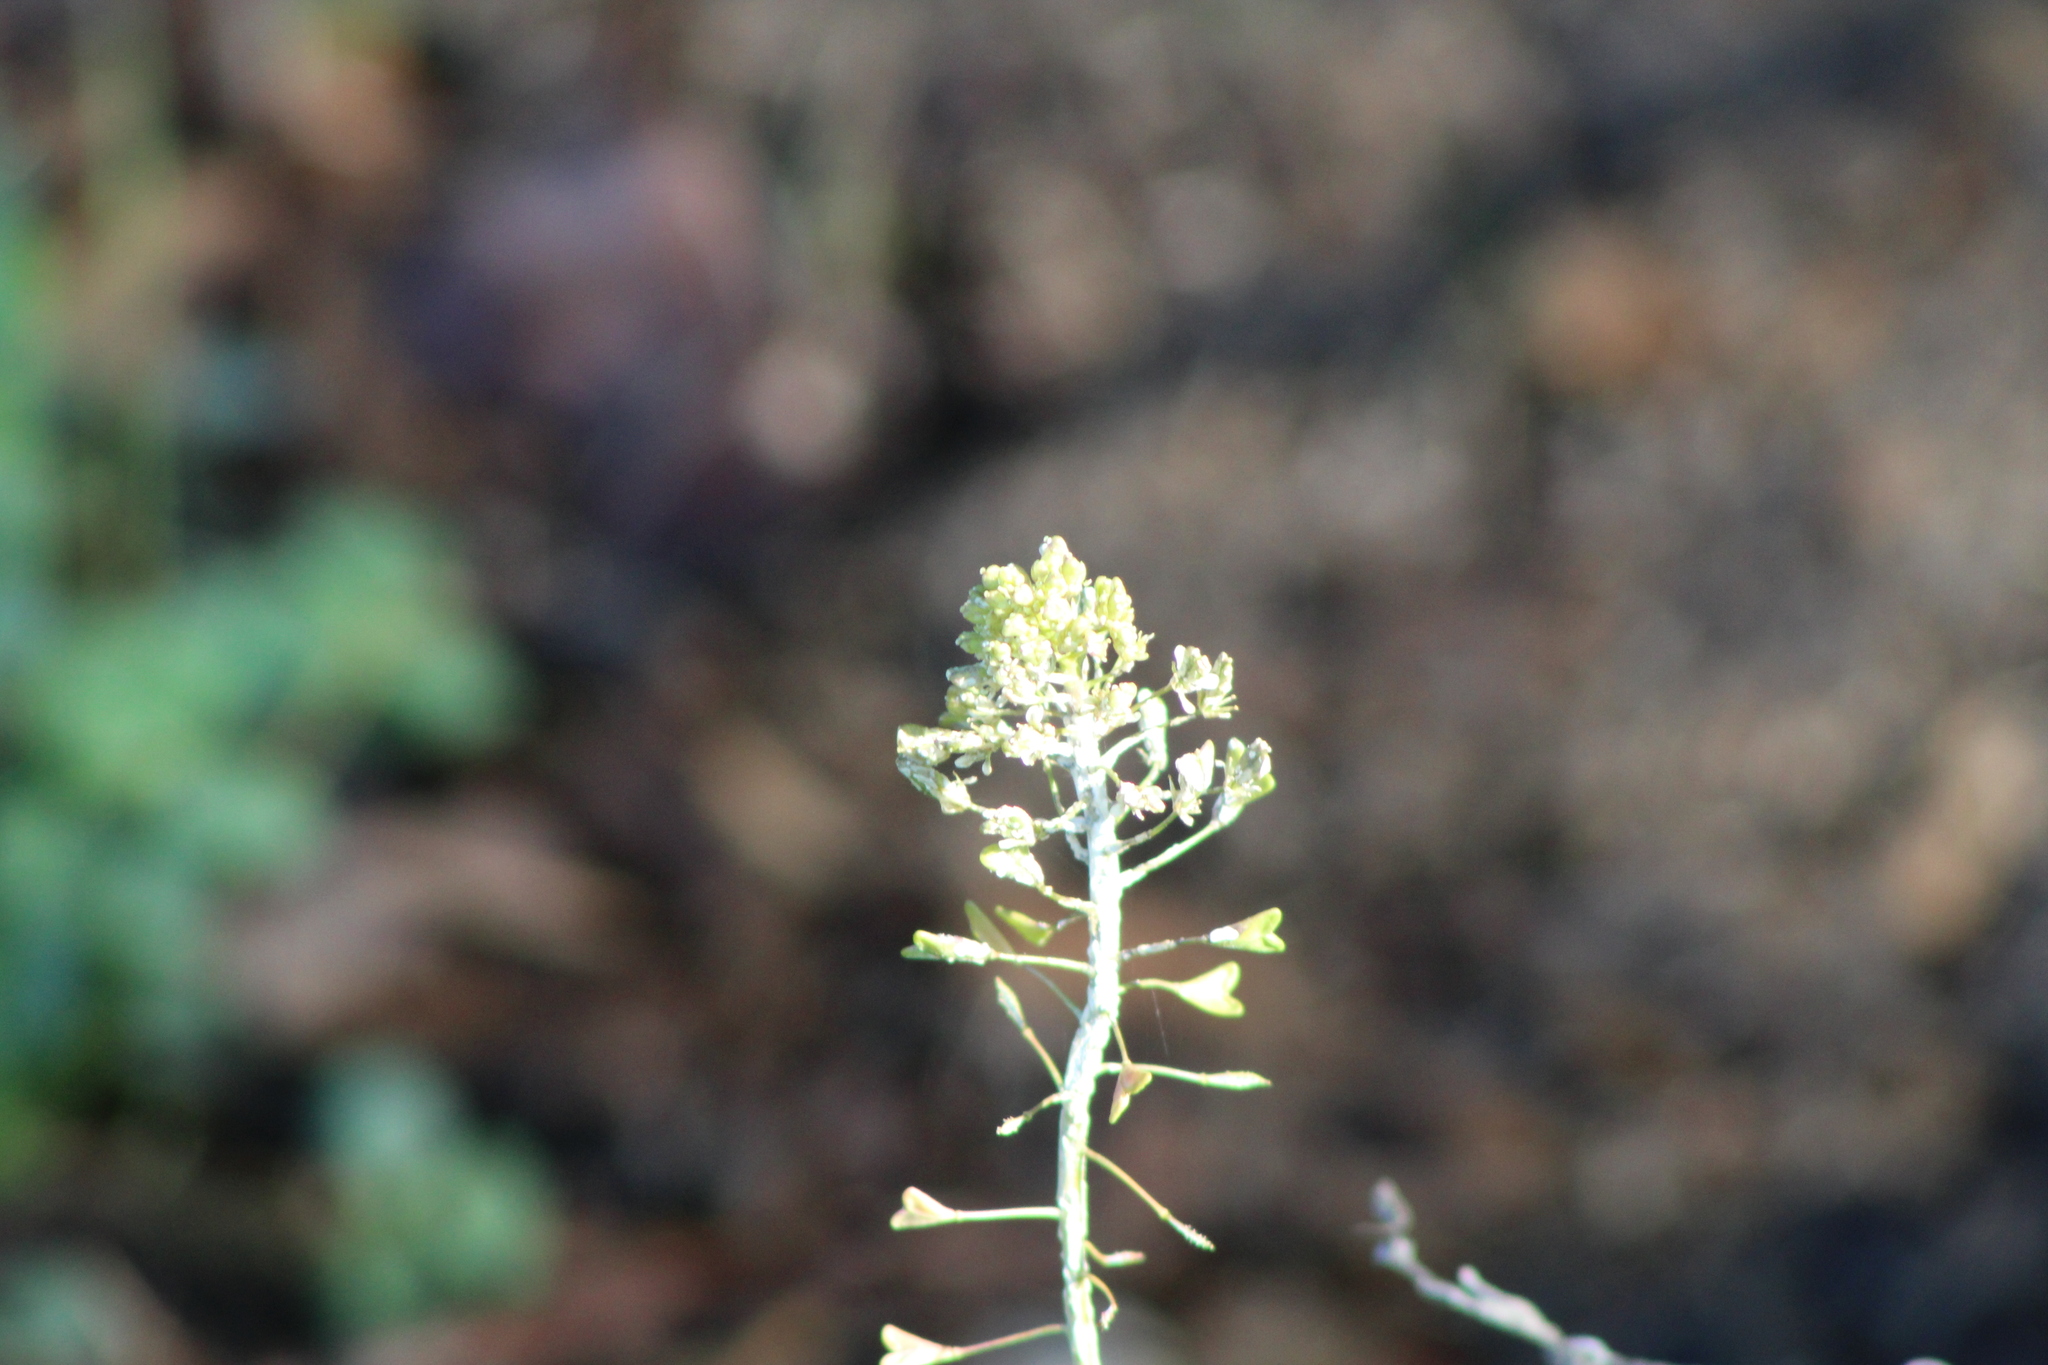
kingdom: Plantae
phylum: Tracheophyta
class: Magnoliopsida
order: Brassicales
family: Brassicaceae
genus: Capsella
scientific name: Capsella bursa-pastoris
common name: Shepherd's purse
